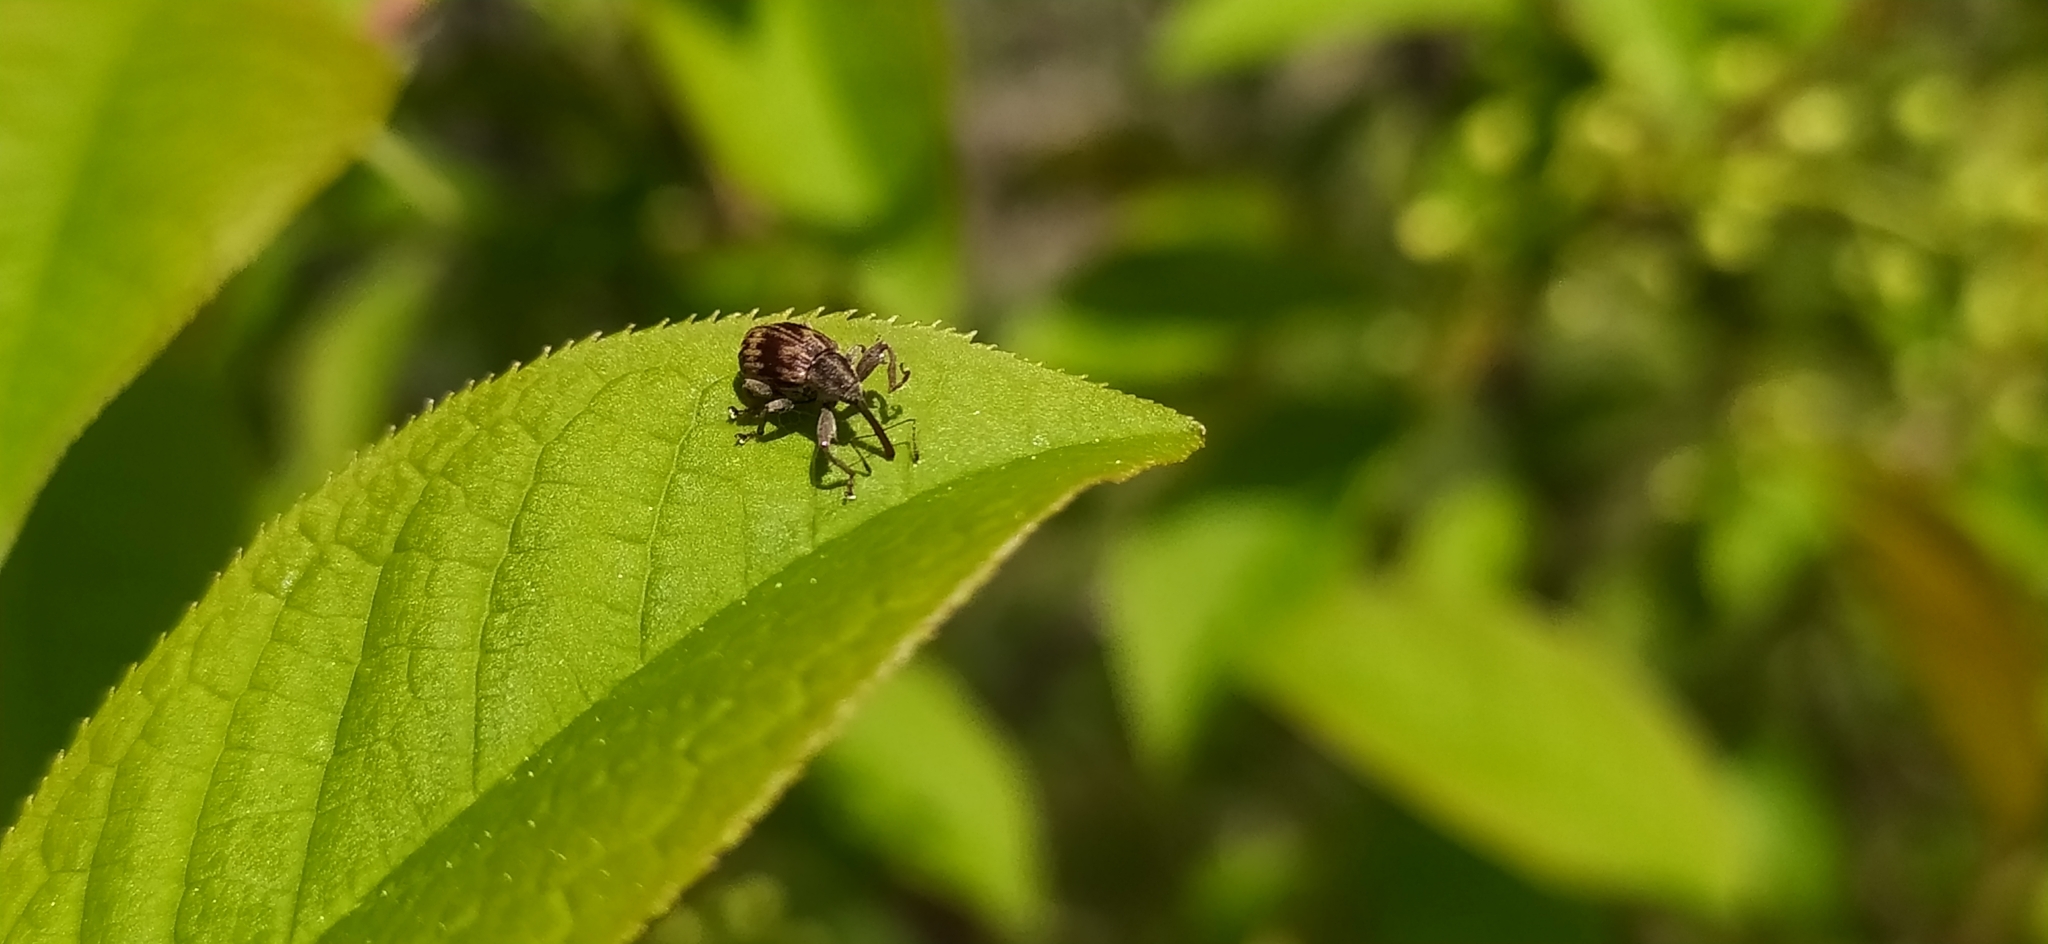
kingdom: Animalia
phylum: Arthropoda
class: Insecta
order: Coleoptera
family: Curculionidae
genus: Anthonomus
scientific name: Anthonomus rectirostris
